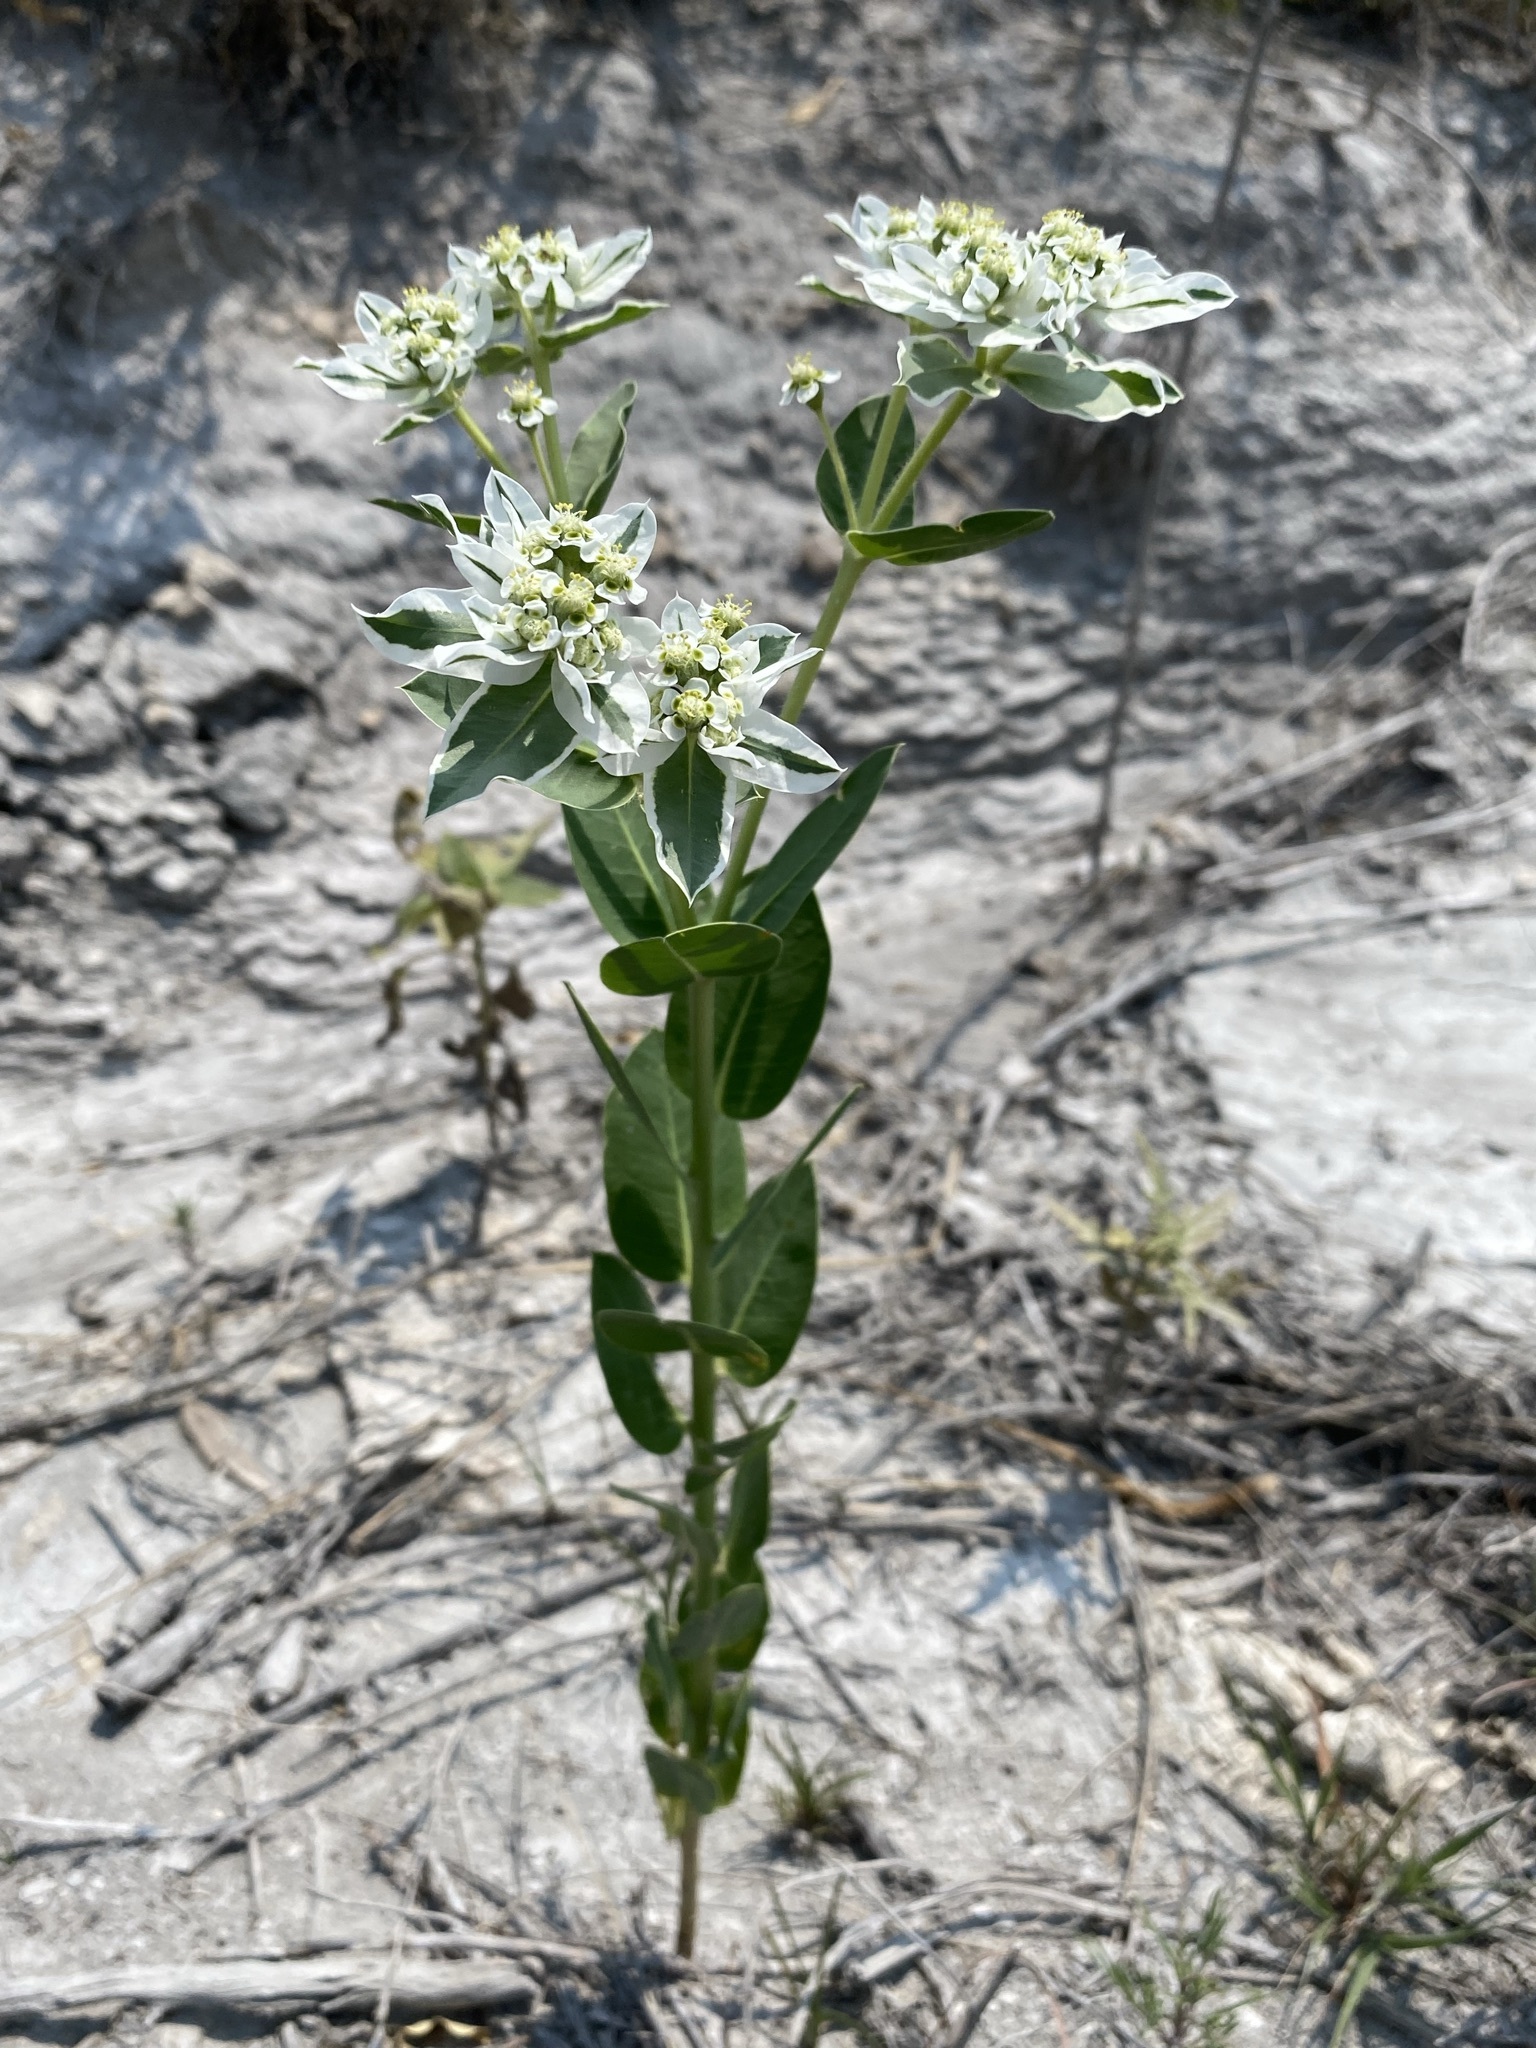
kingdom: Plantae
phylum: Tracheophyta
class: Magnoliopsida
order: Malpighiales
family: Euphorbiaceae
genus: Euphorbia
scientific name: Euphorbia marginata
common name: Ghostweed
